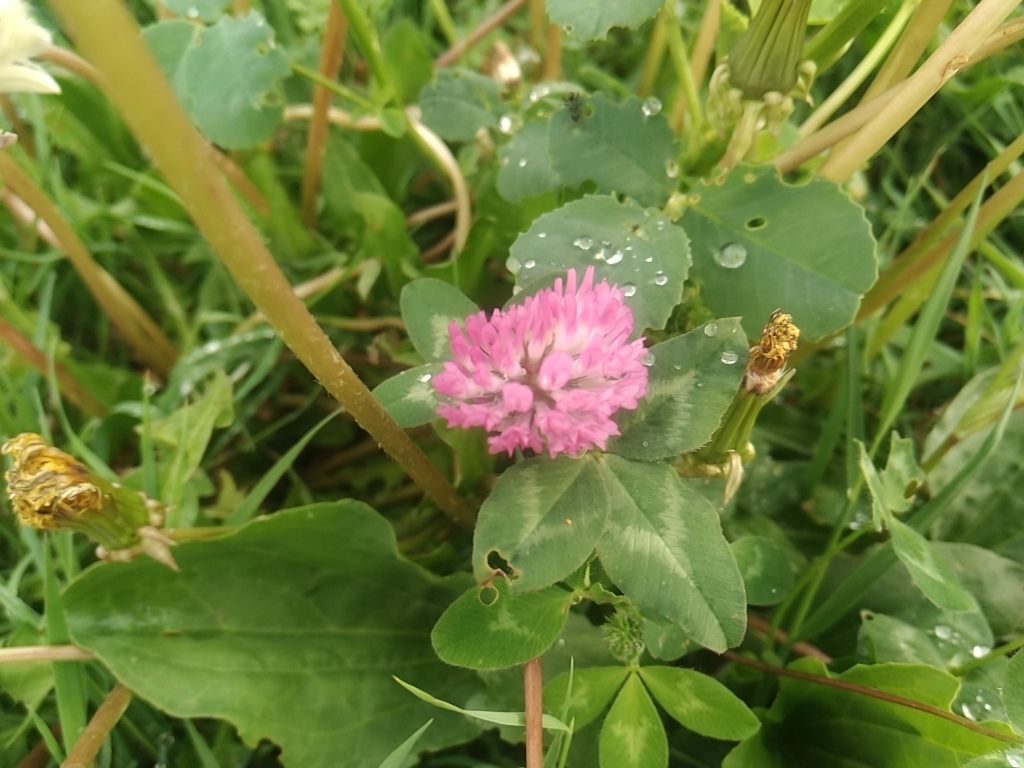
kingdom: Plantae
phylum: Tracheophyta
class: Magnoliopsida
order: Fabales
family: Fabaceae
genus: Trifolium
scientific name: Trifolium pratense
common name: Red clover
